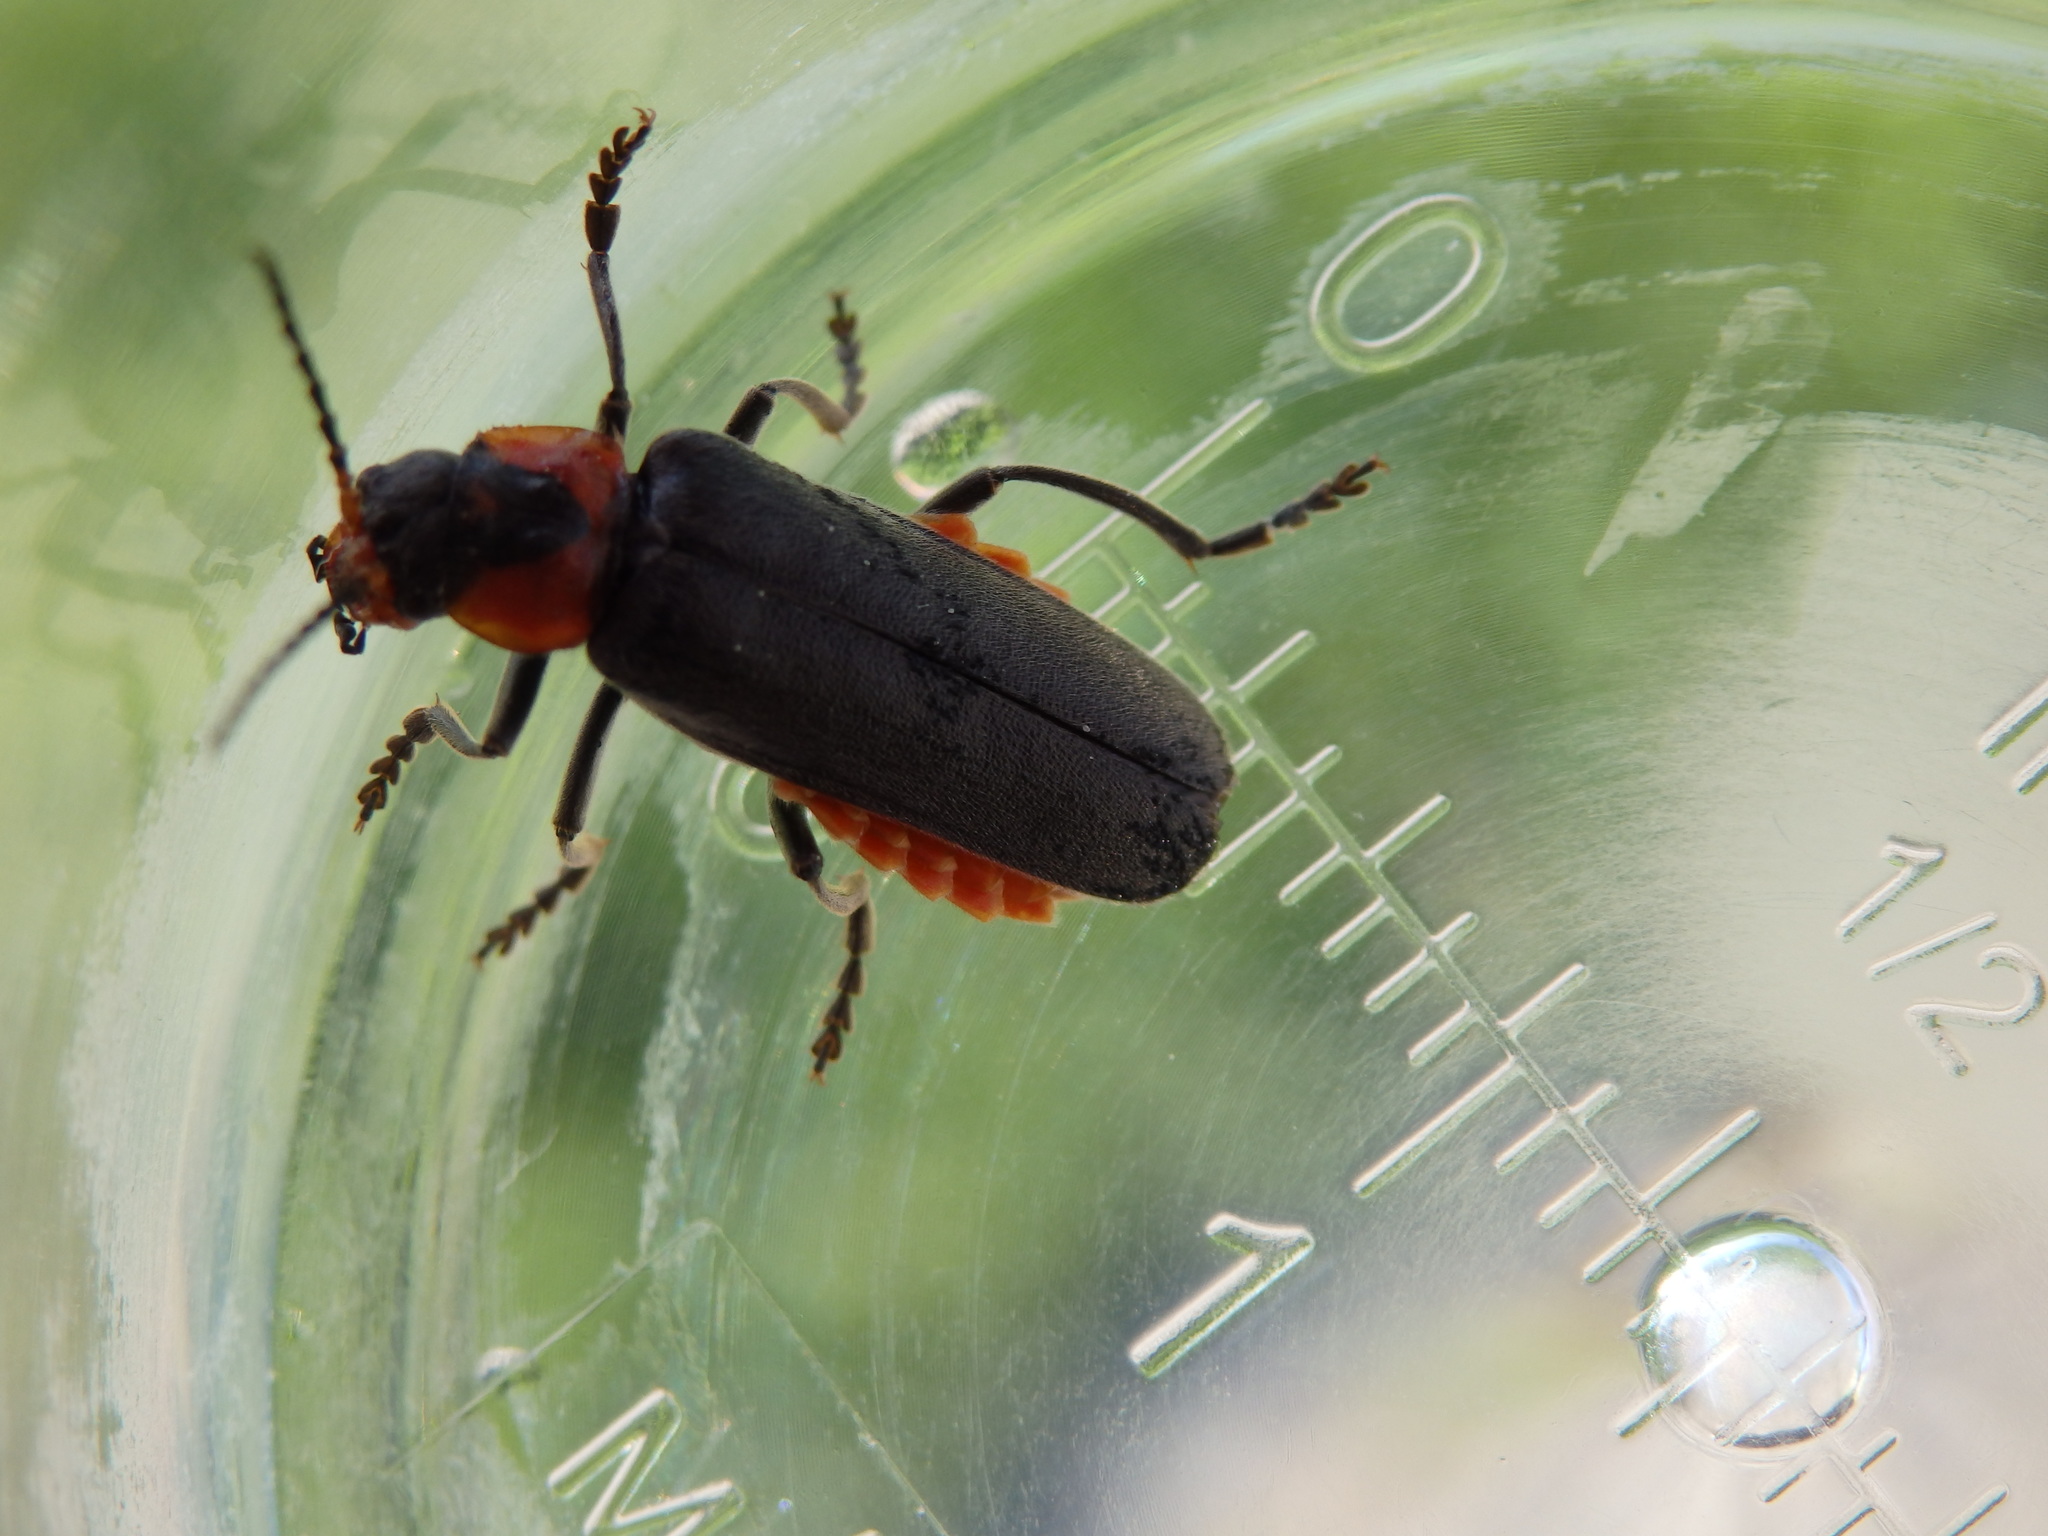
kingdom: Animalia
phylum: Arthropoda
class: Insecta
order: Coleoptera
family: Cantharidae
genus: Cantharis
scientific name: Cantharis reichei
